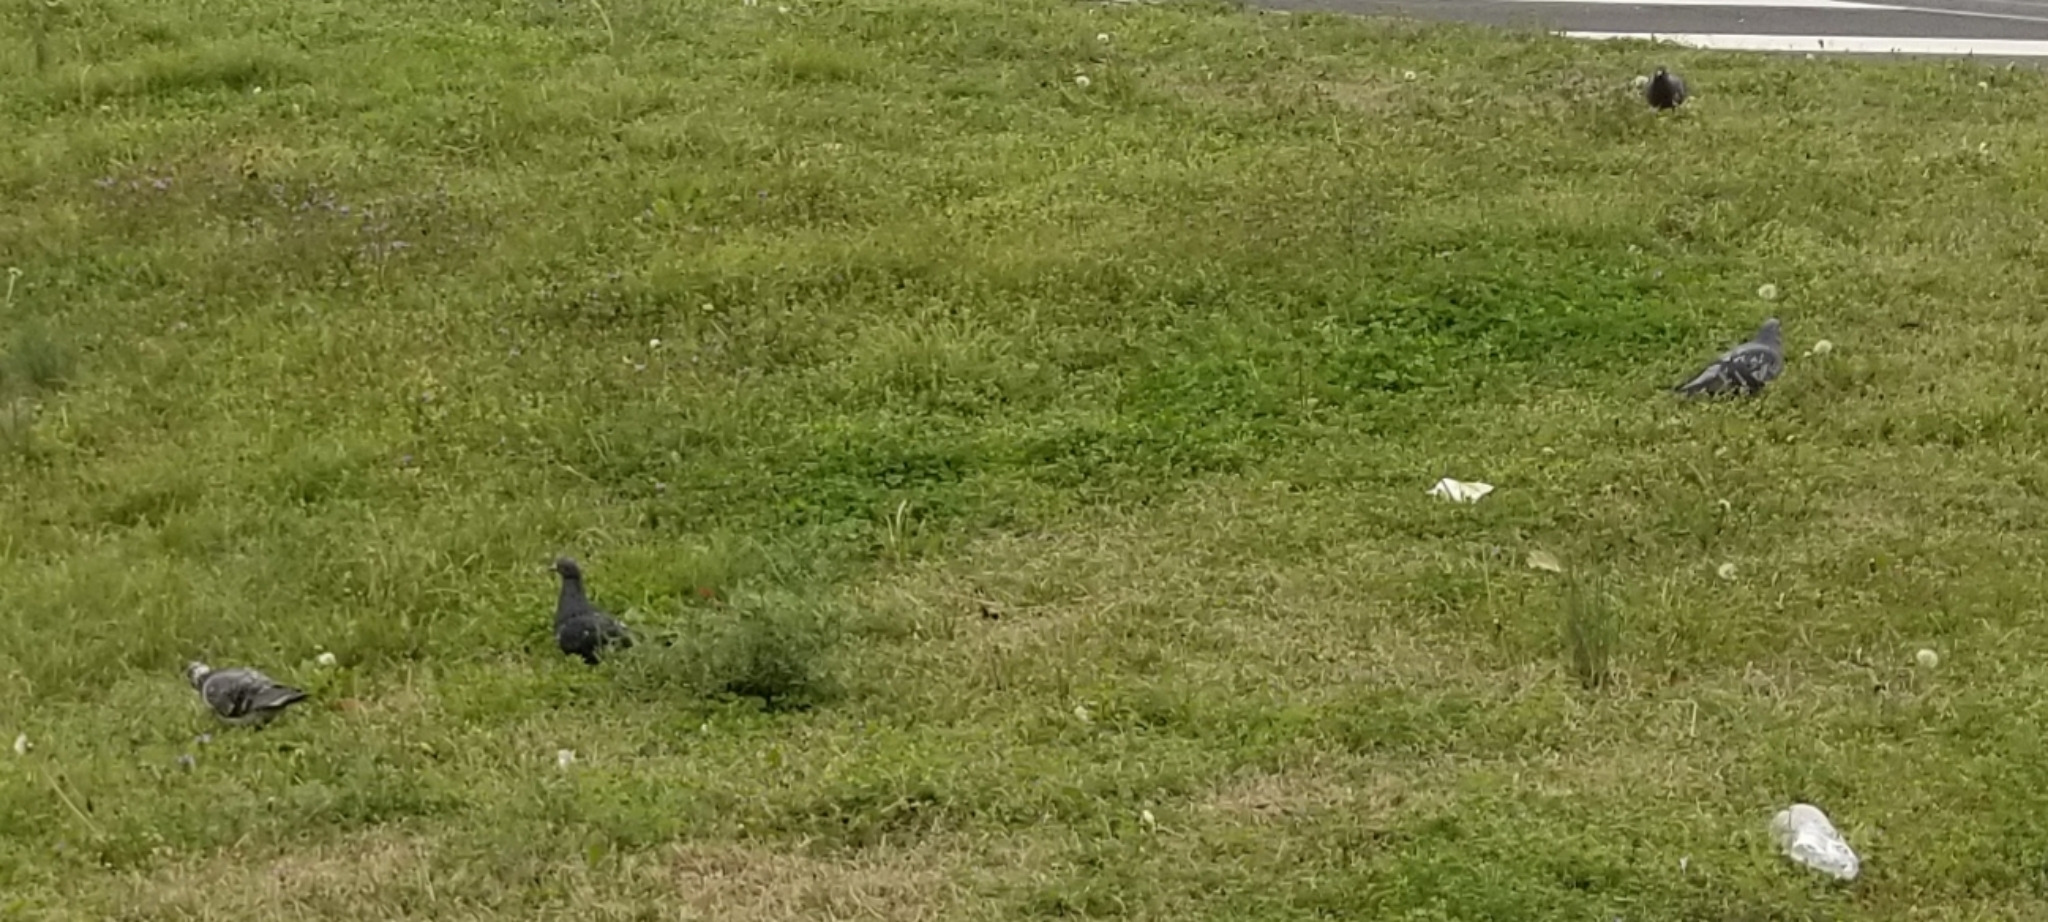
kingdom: Animalia
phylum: Chordata
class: Aves
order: Columbiformes
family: Columbidae
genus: Columba
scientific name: Columba livia
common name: Rock pigeon
